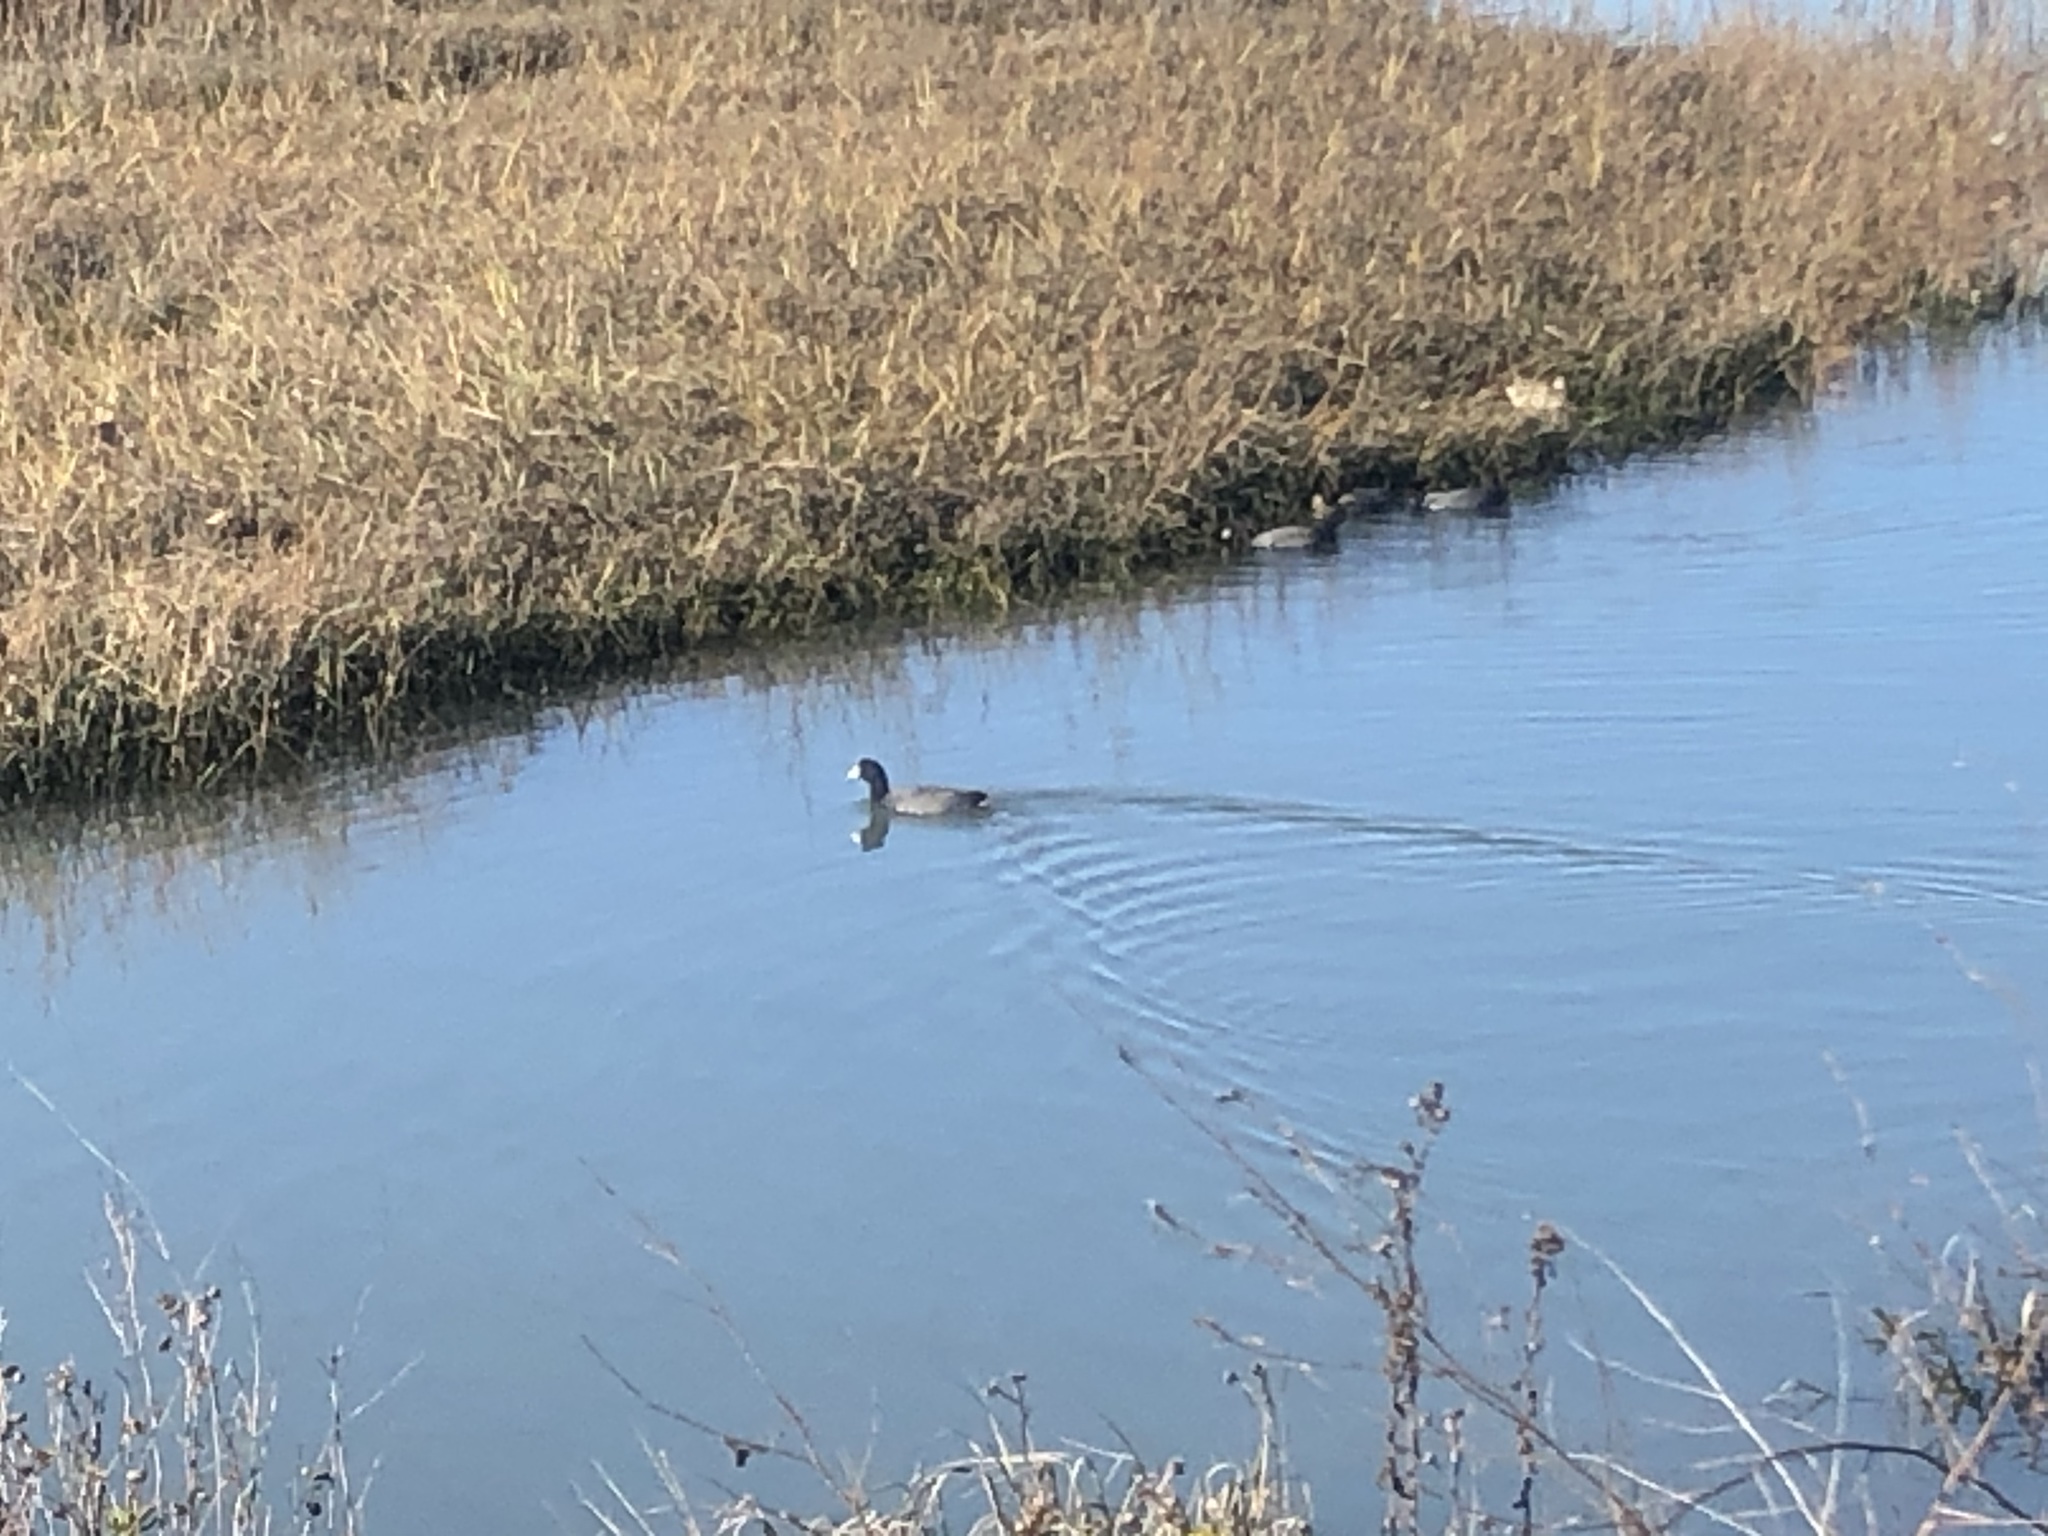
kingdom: Animalia
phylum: Chordata
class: Aves
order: Gruiformes
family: Rallidae
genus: Fulica
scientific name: Fulica americana
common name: American coot
